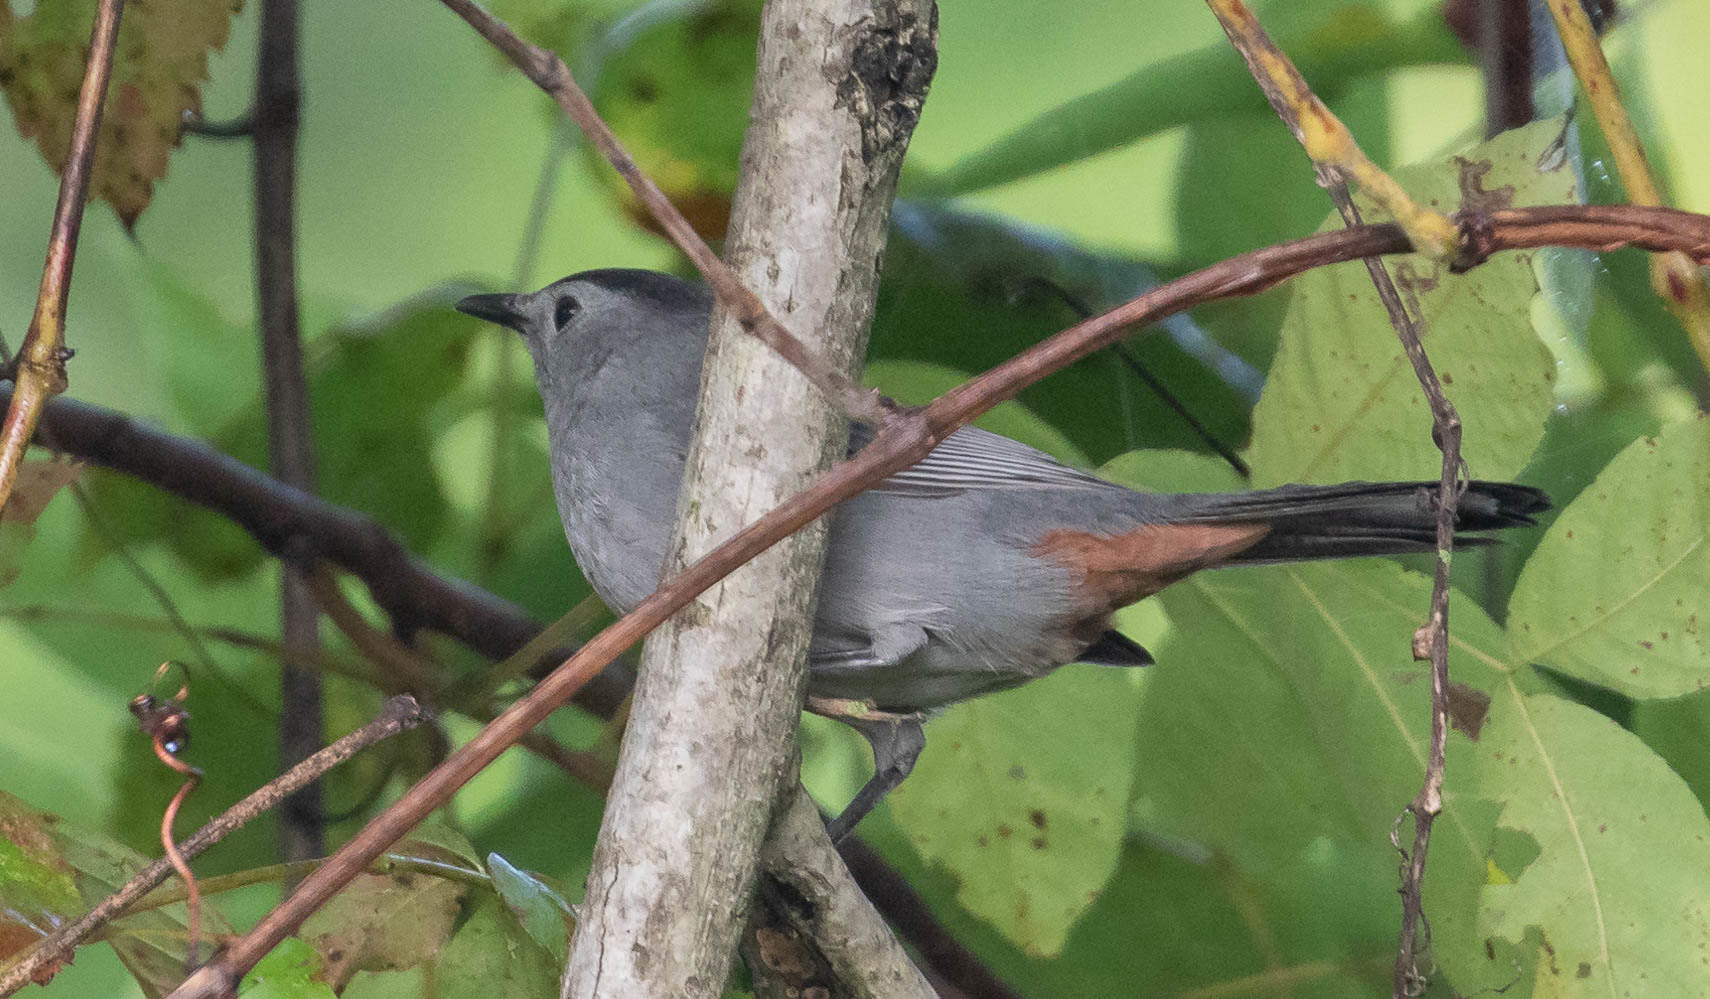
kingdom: Animalia
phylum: Chordata
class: Aves
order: Passeriformes
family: Mimidae
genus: Dumetella
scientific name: Dumetella carolinensis
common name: Gray catbird
